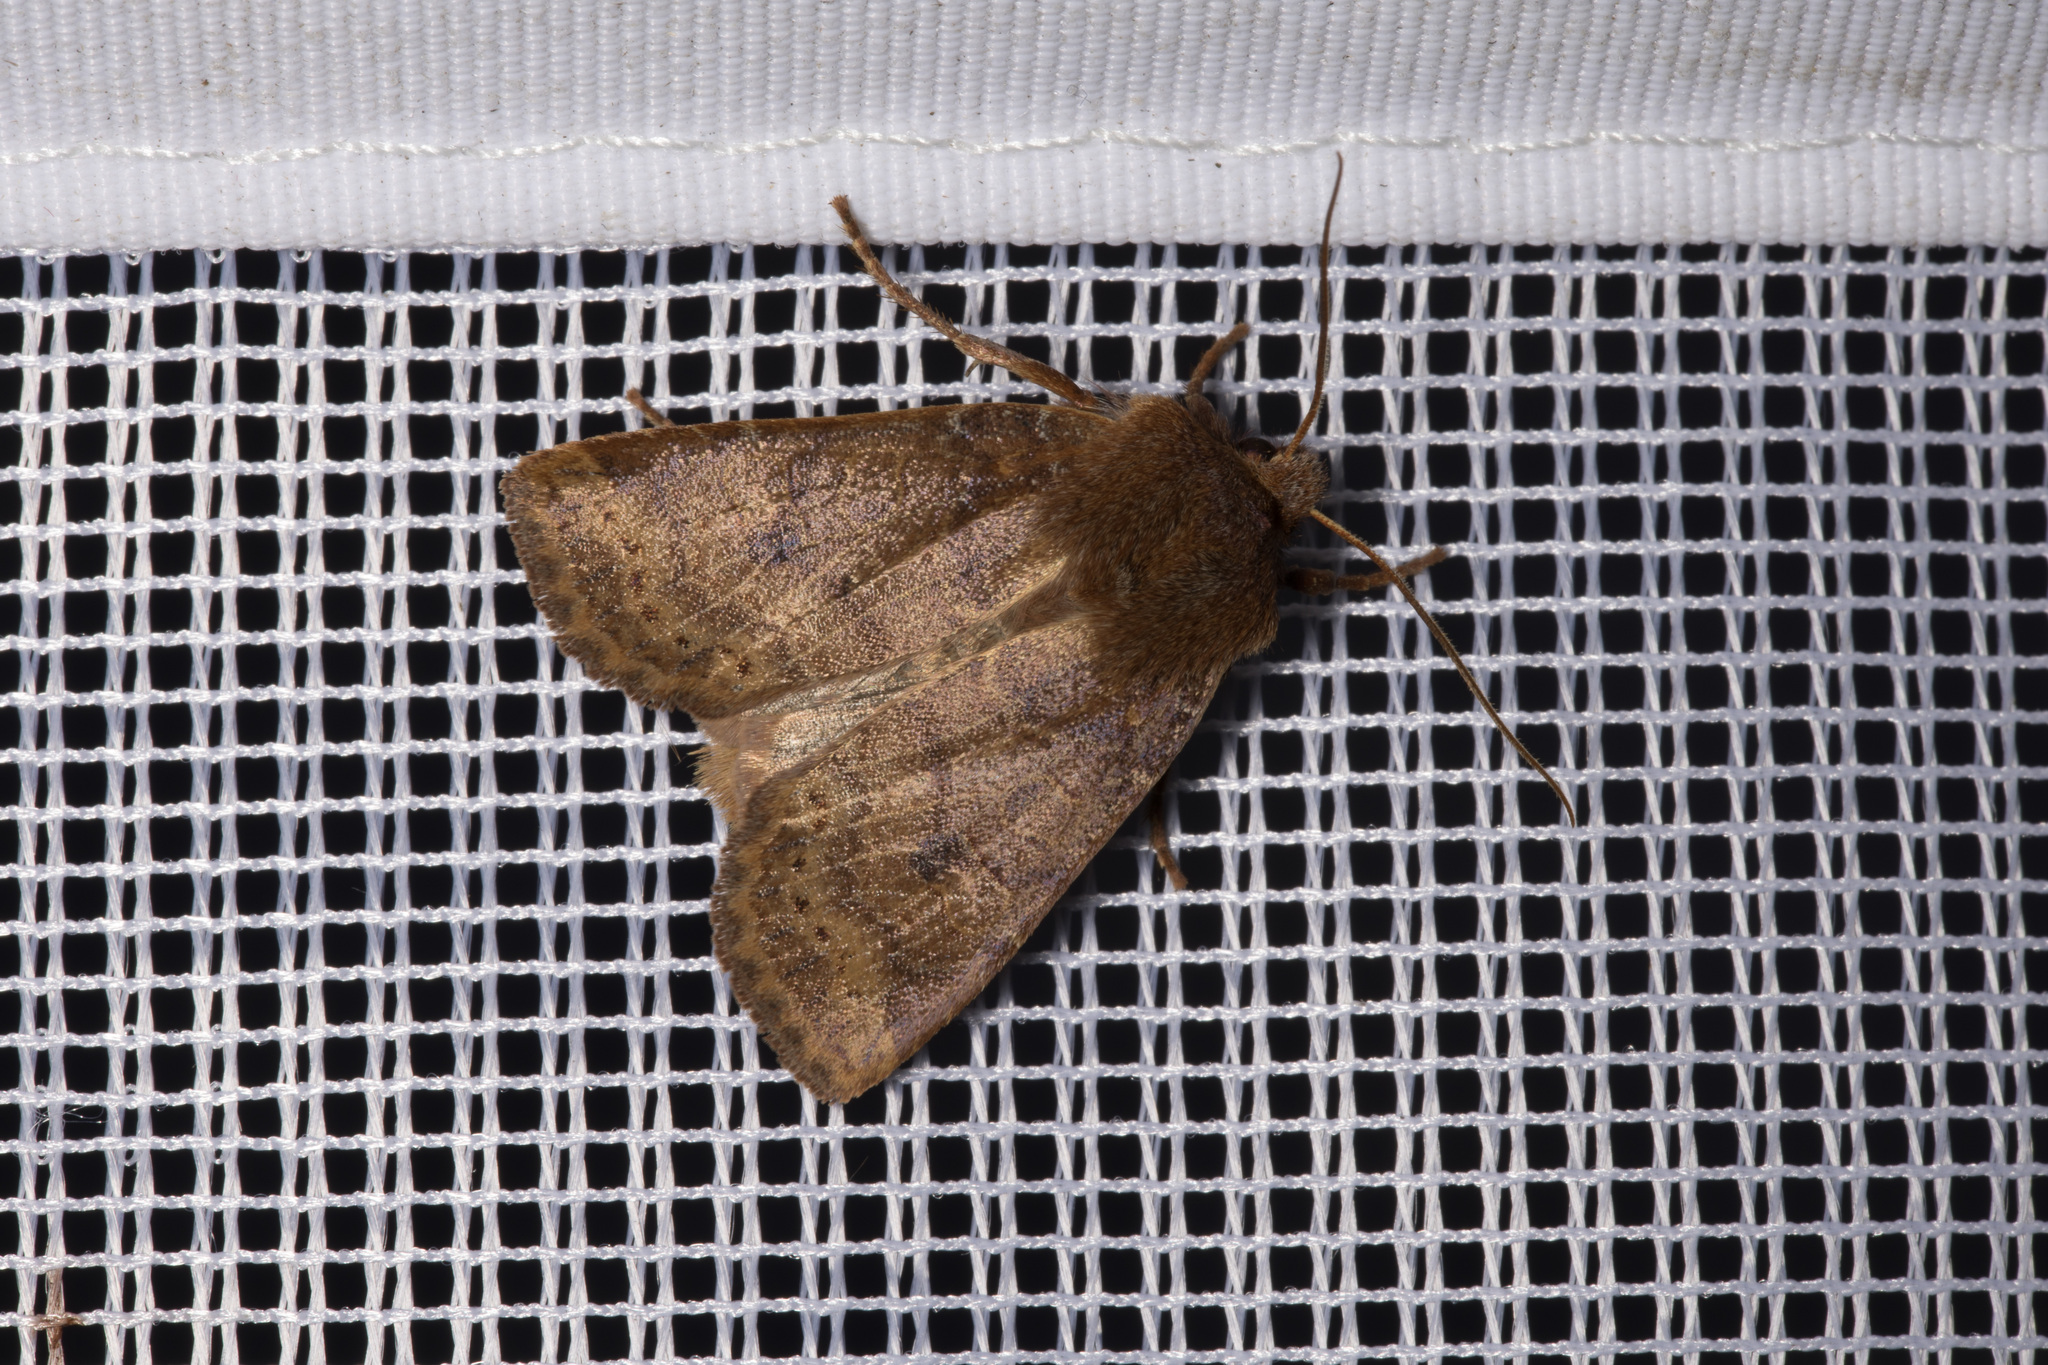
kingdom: Animalia
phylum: Arthropoda
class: Insecta
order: Lepidoptera
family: Noctuidae
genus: Conistra
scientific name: Conistra vaccinii
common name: Chestnut
